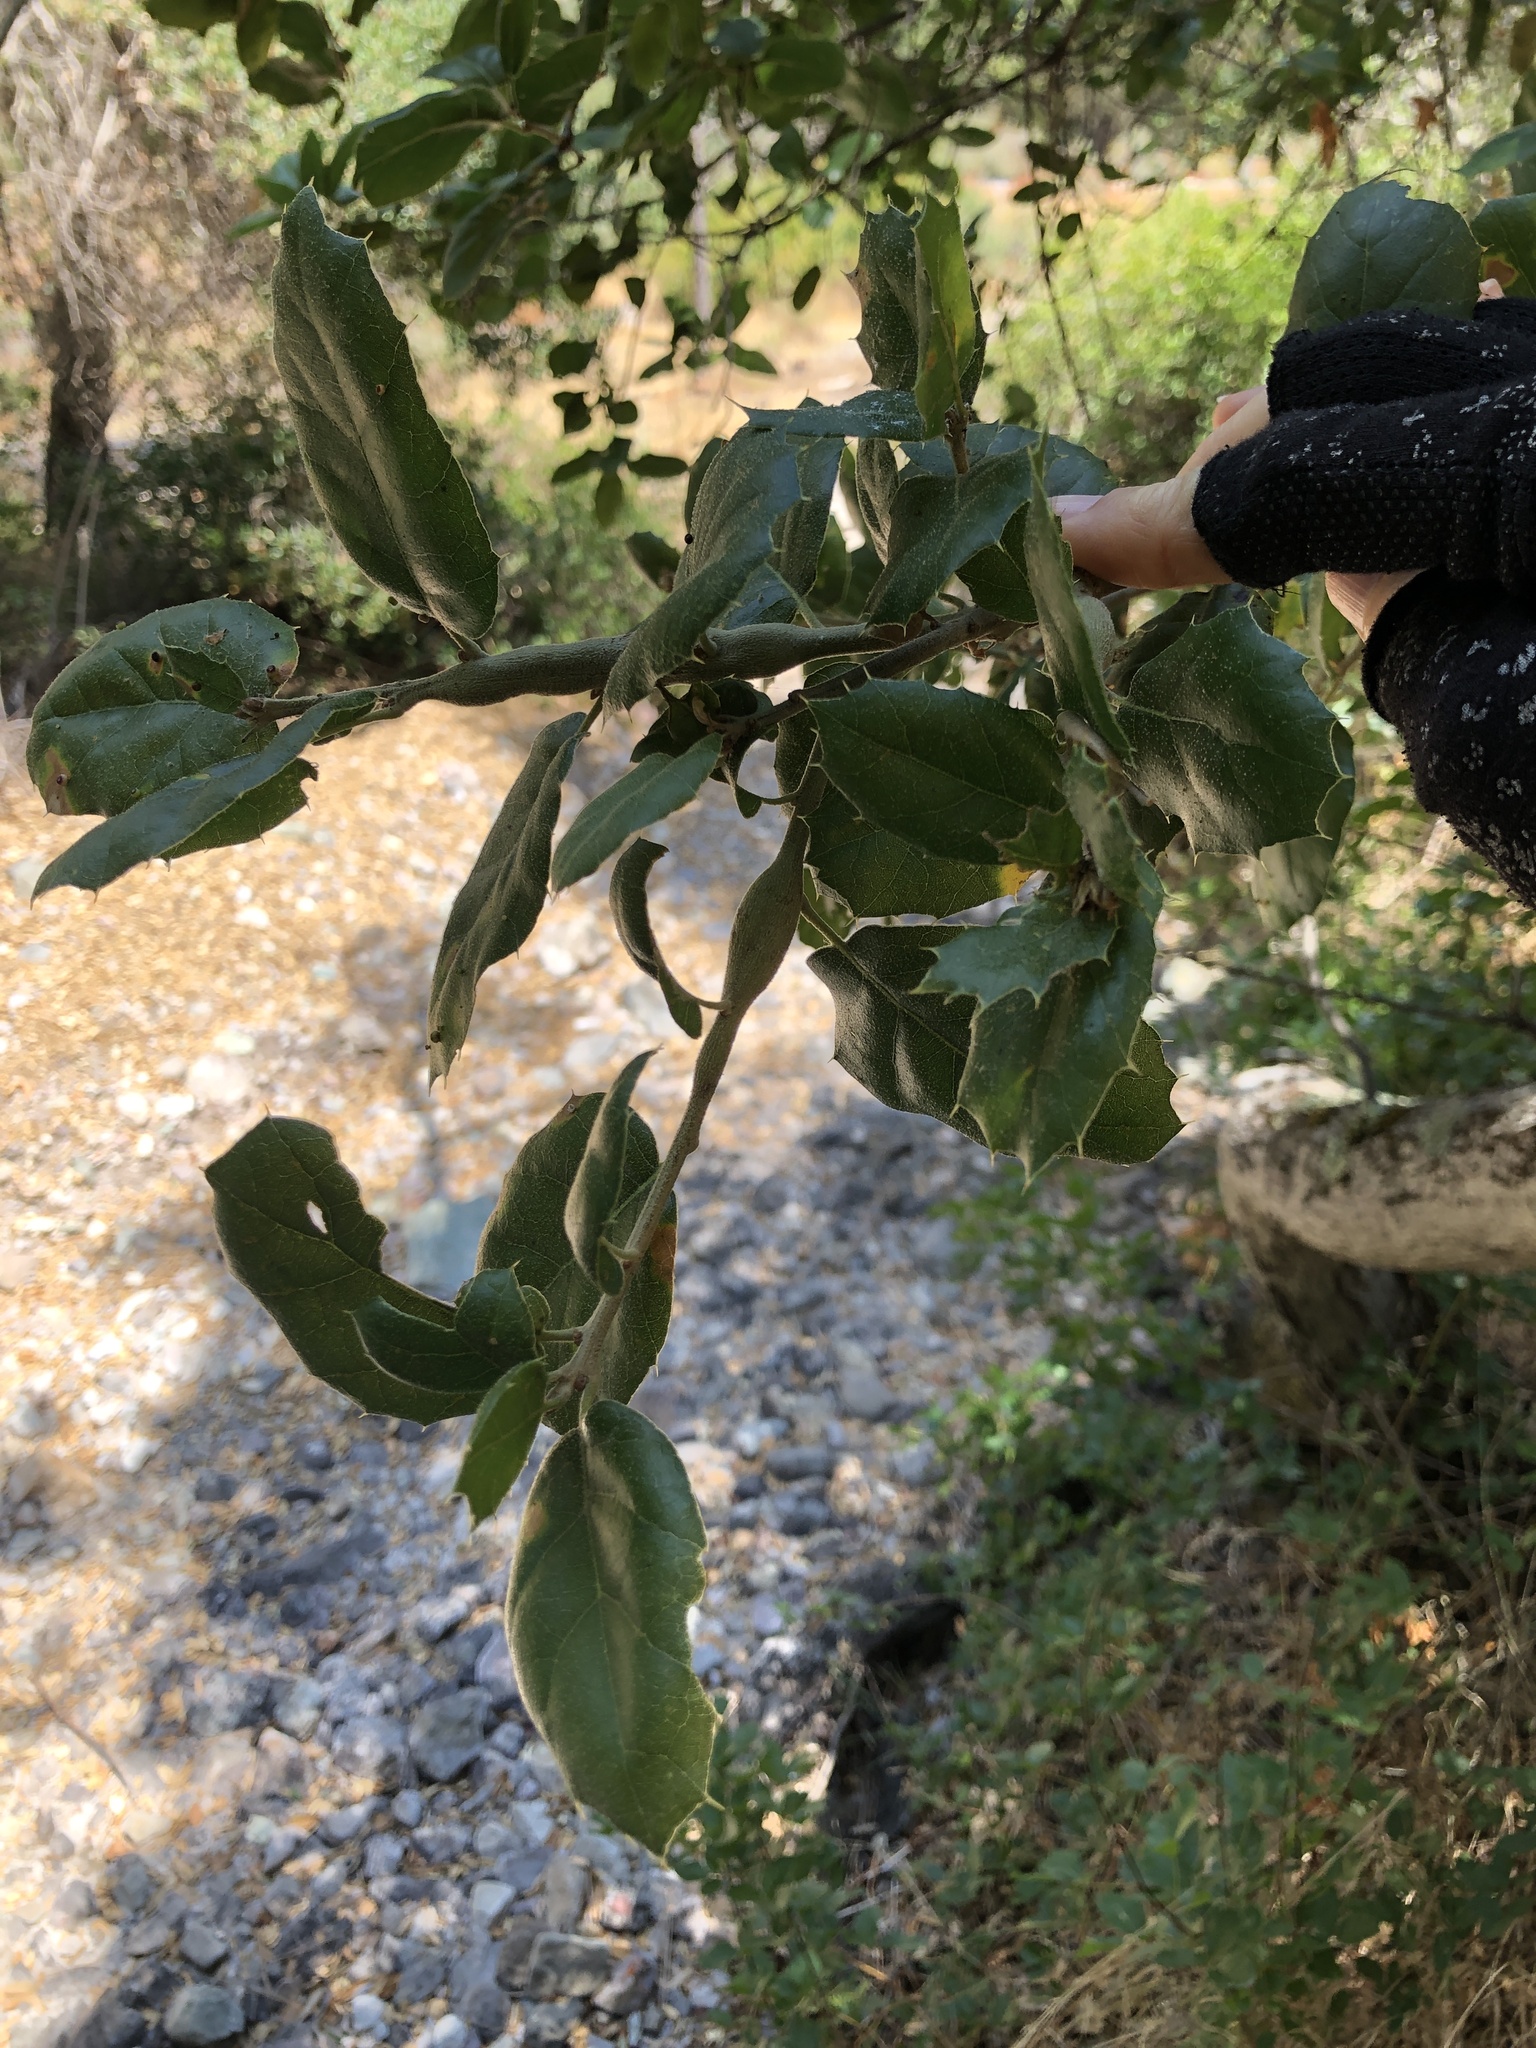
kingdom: Plantae
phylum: Tracheophyta
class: Magnoliopsida
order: Fagales
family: Fagaceae
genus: Quercus
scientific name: Quercus agrifolia
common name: California live oak
